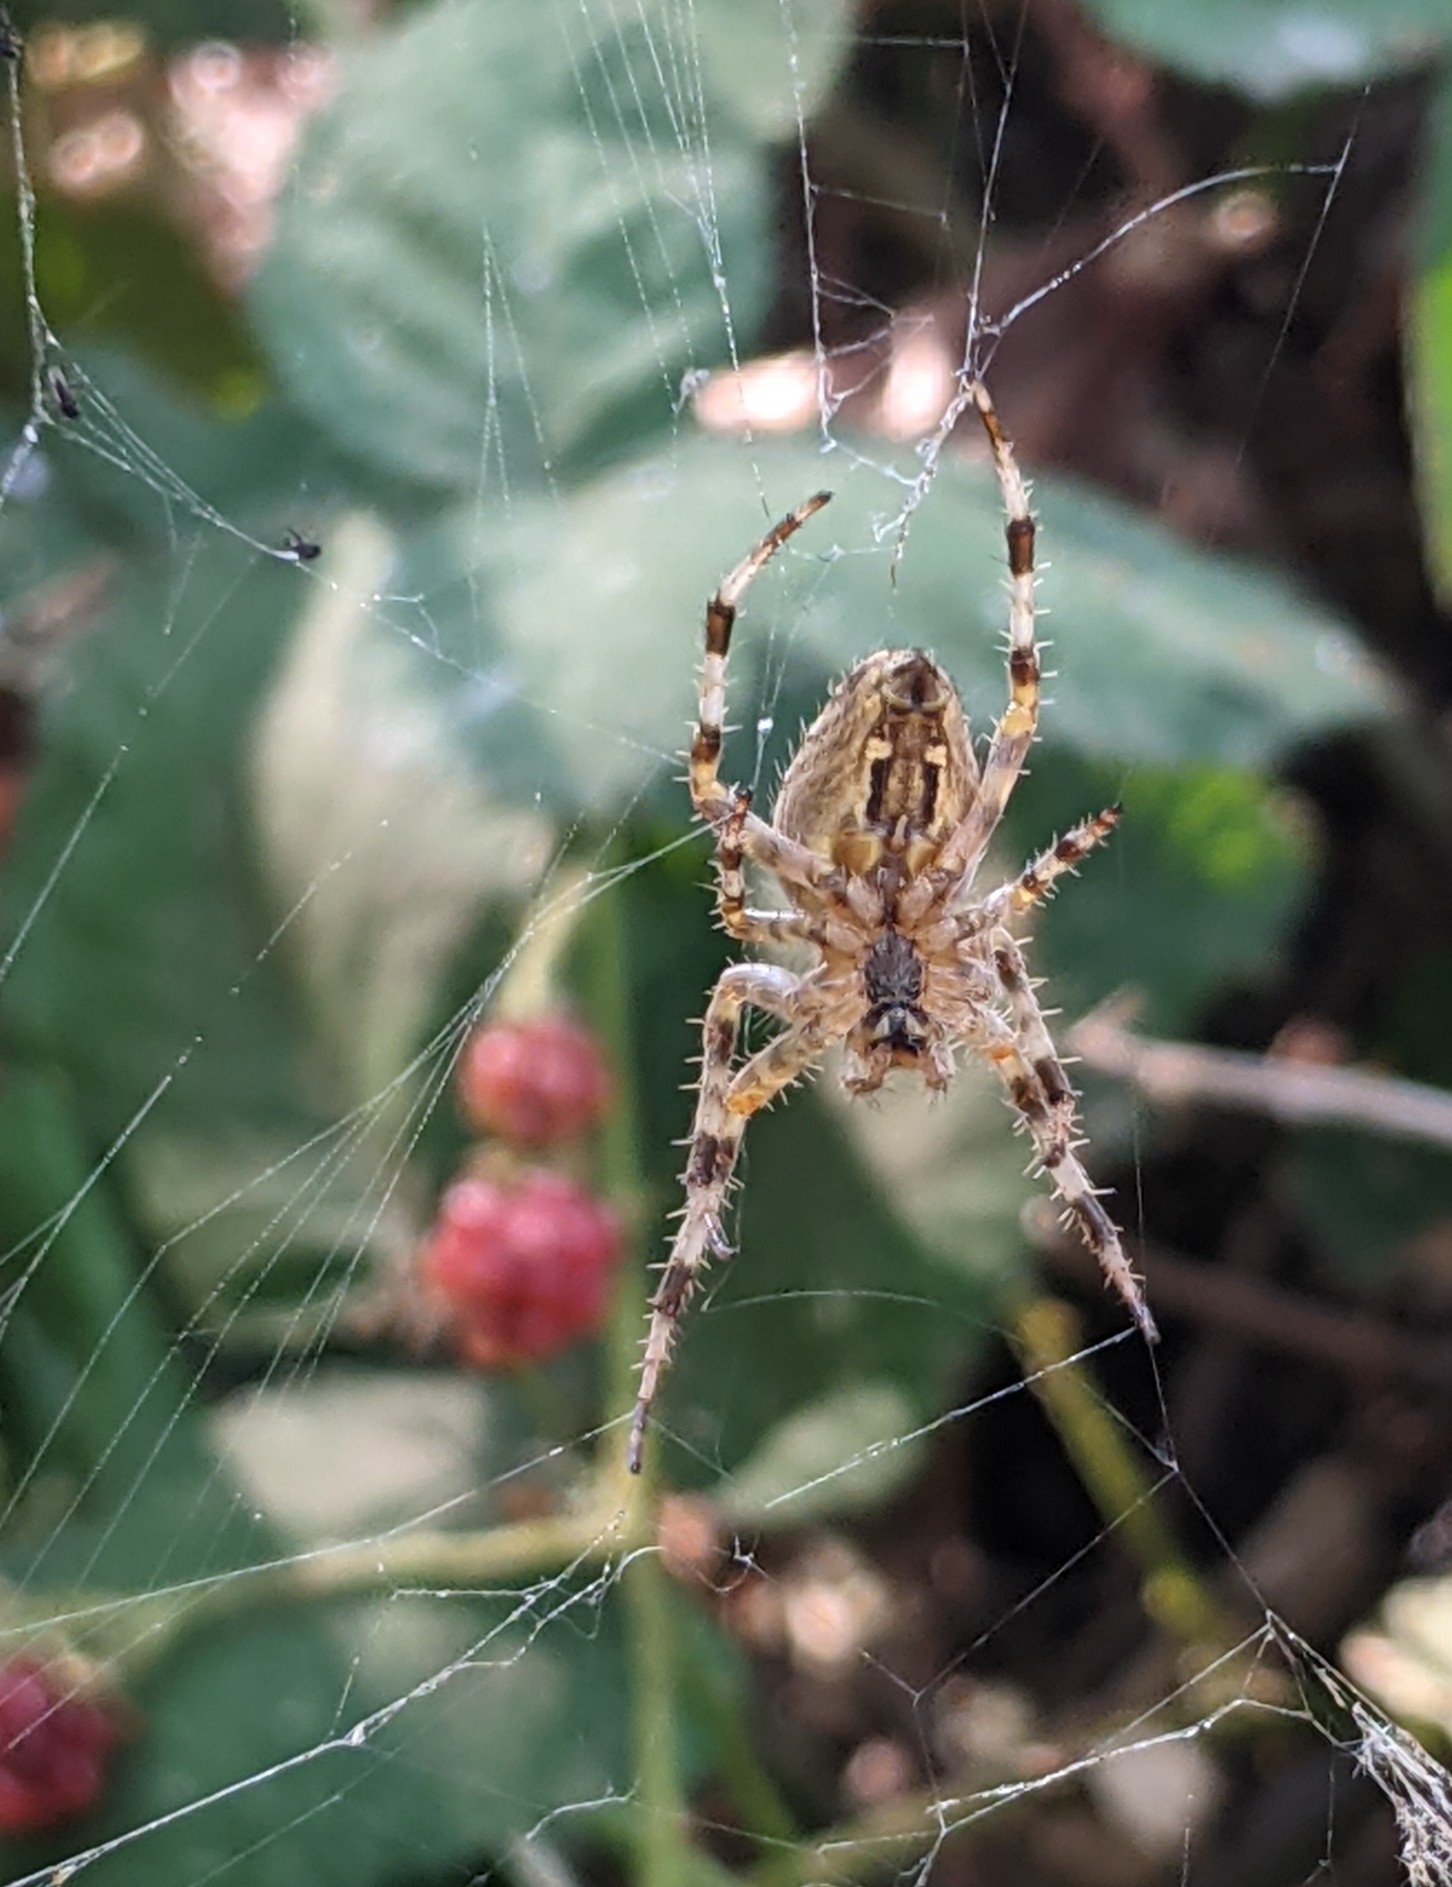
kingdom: Animalia
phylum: Arthropoda
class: Arachnida
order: Araneae
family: Araneidae
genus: Araneus
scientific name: Araneus diadematus
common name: Cross orbweaver
